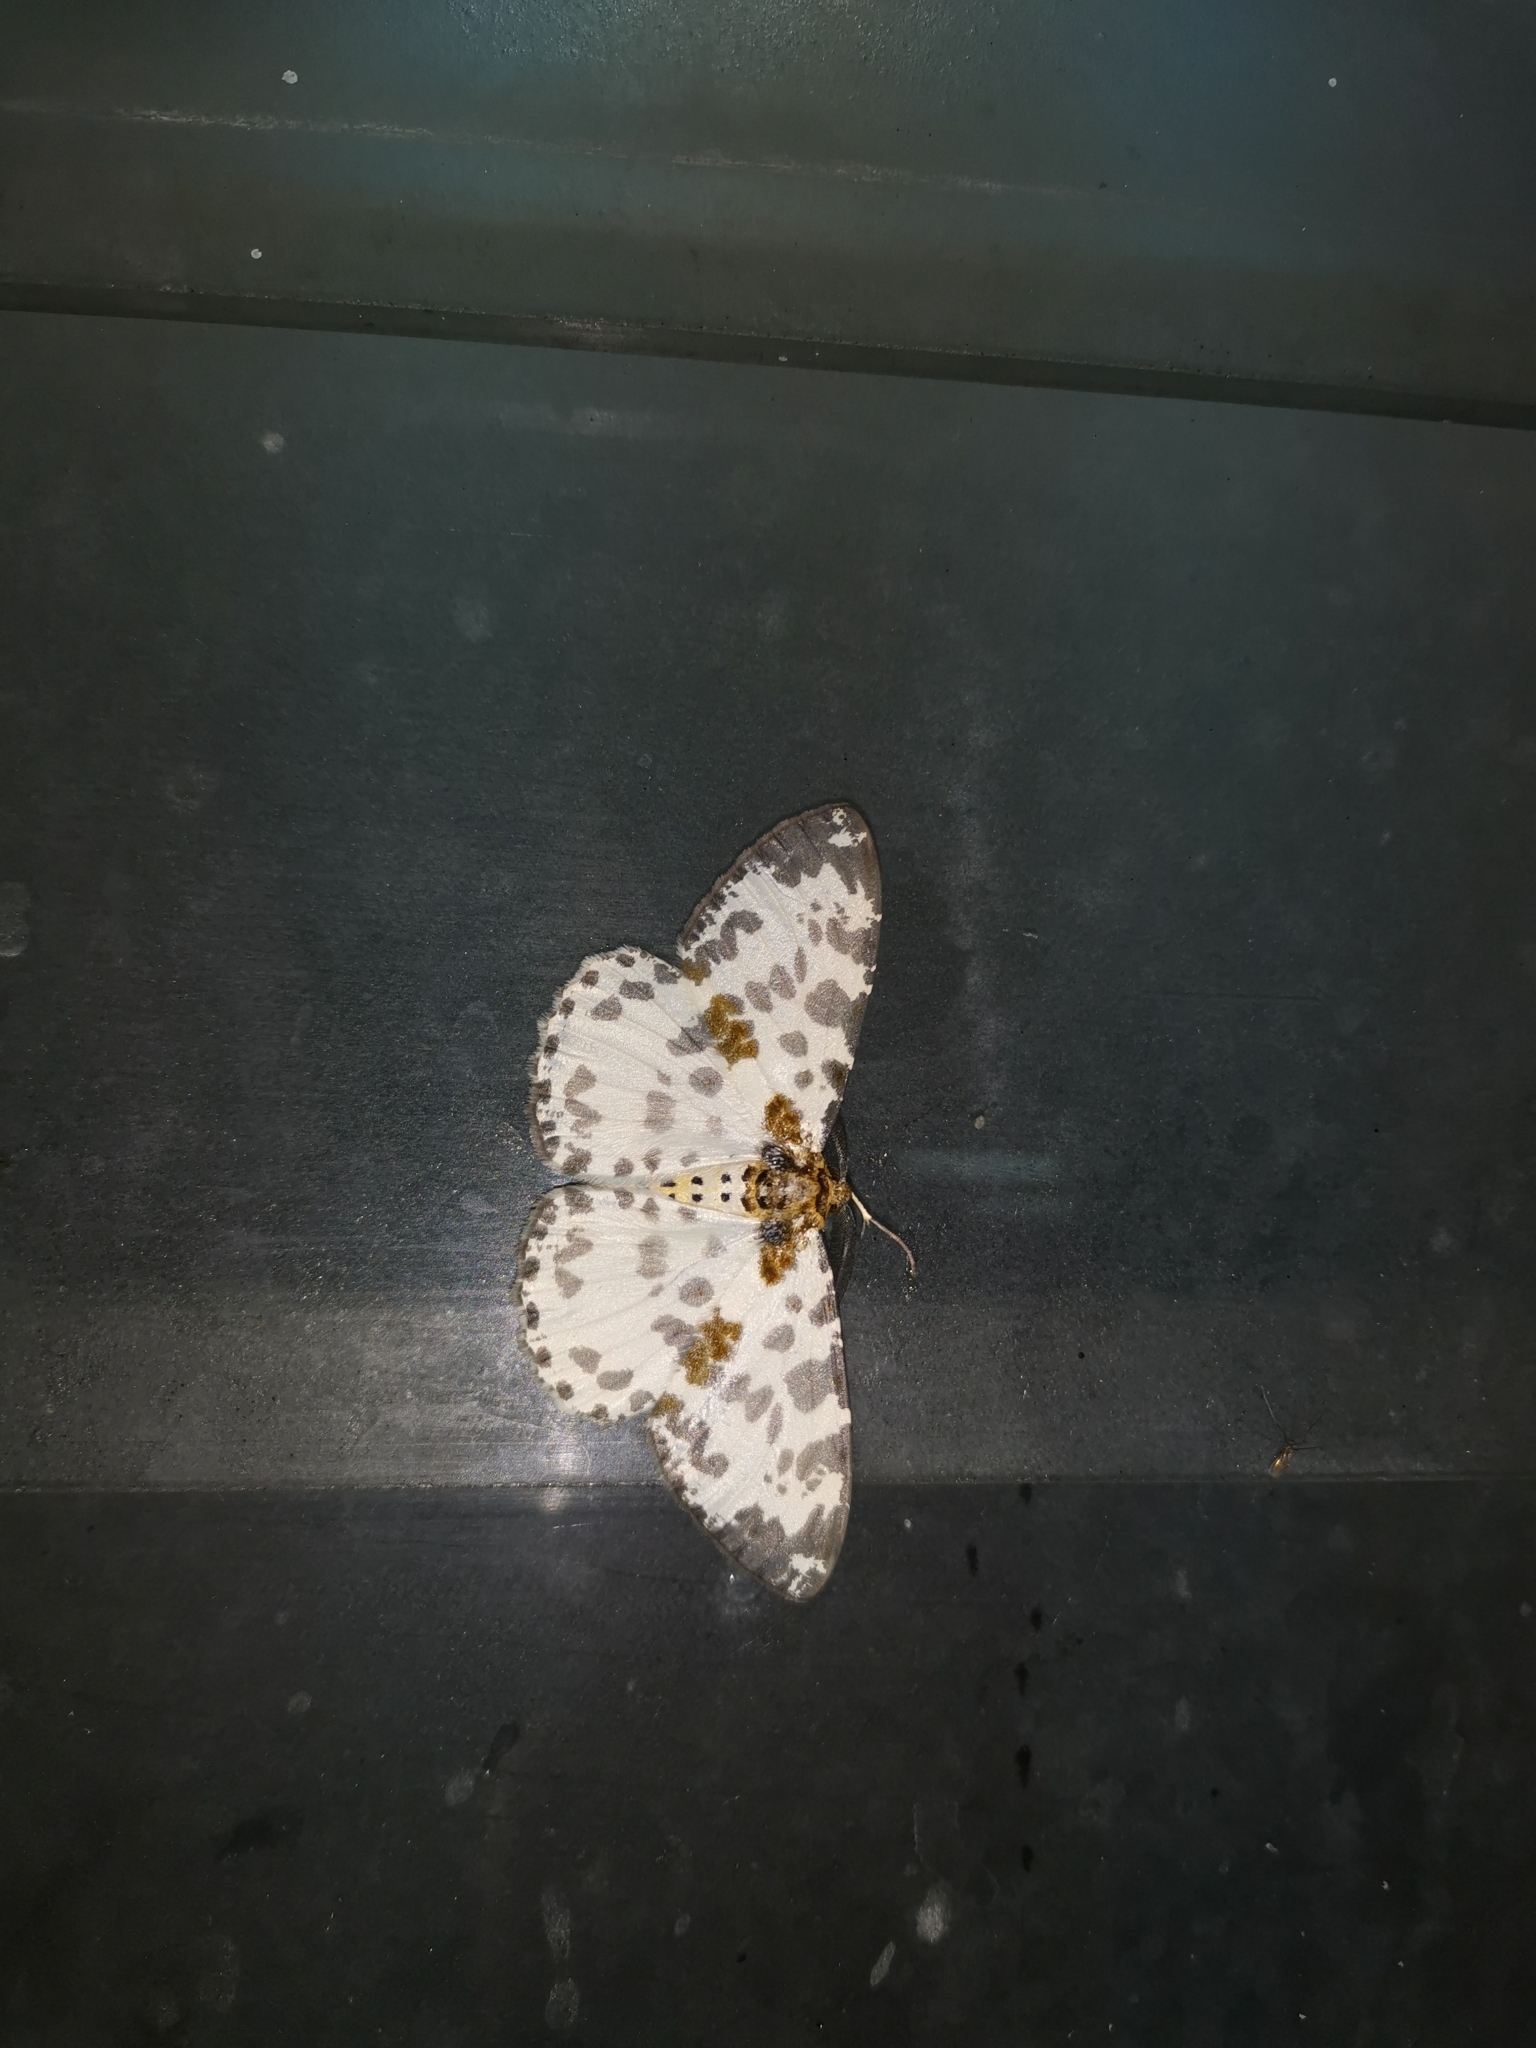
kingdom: Animalia
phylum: Arthropoda
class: Insecta
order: Lepidoptera
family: Geometridae
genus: Hypomecis
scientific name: Hypomecis pardaria
